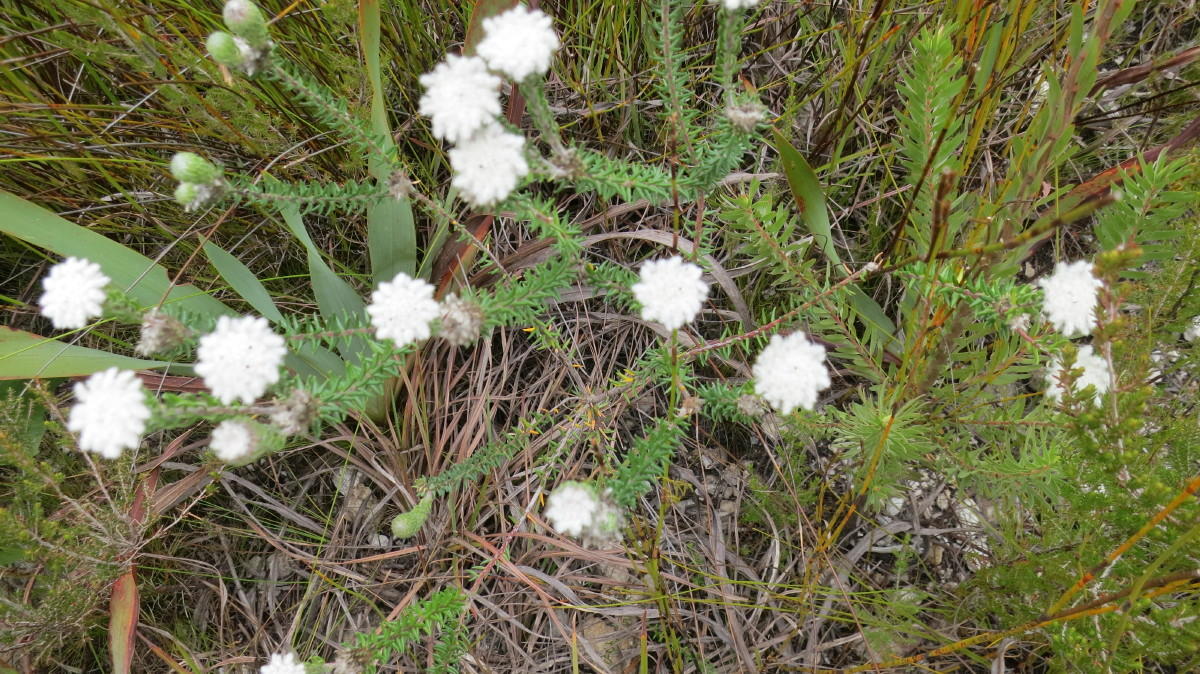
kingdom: Plantae
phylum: Tracheophyta
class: Magnoliopsida
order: Rosales
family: Rhamnaceae
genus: Phylica
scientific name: Phylica curvifolia
